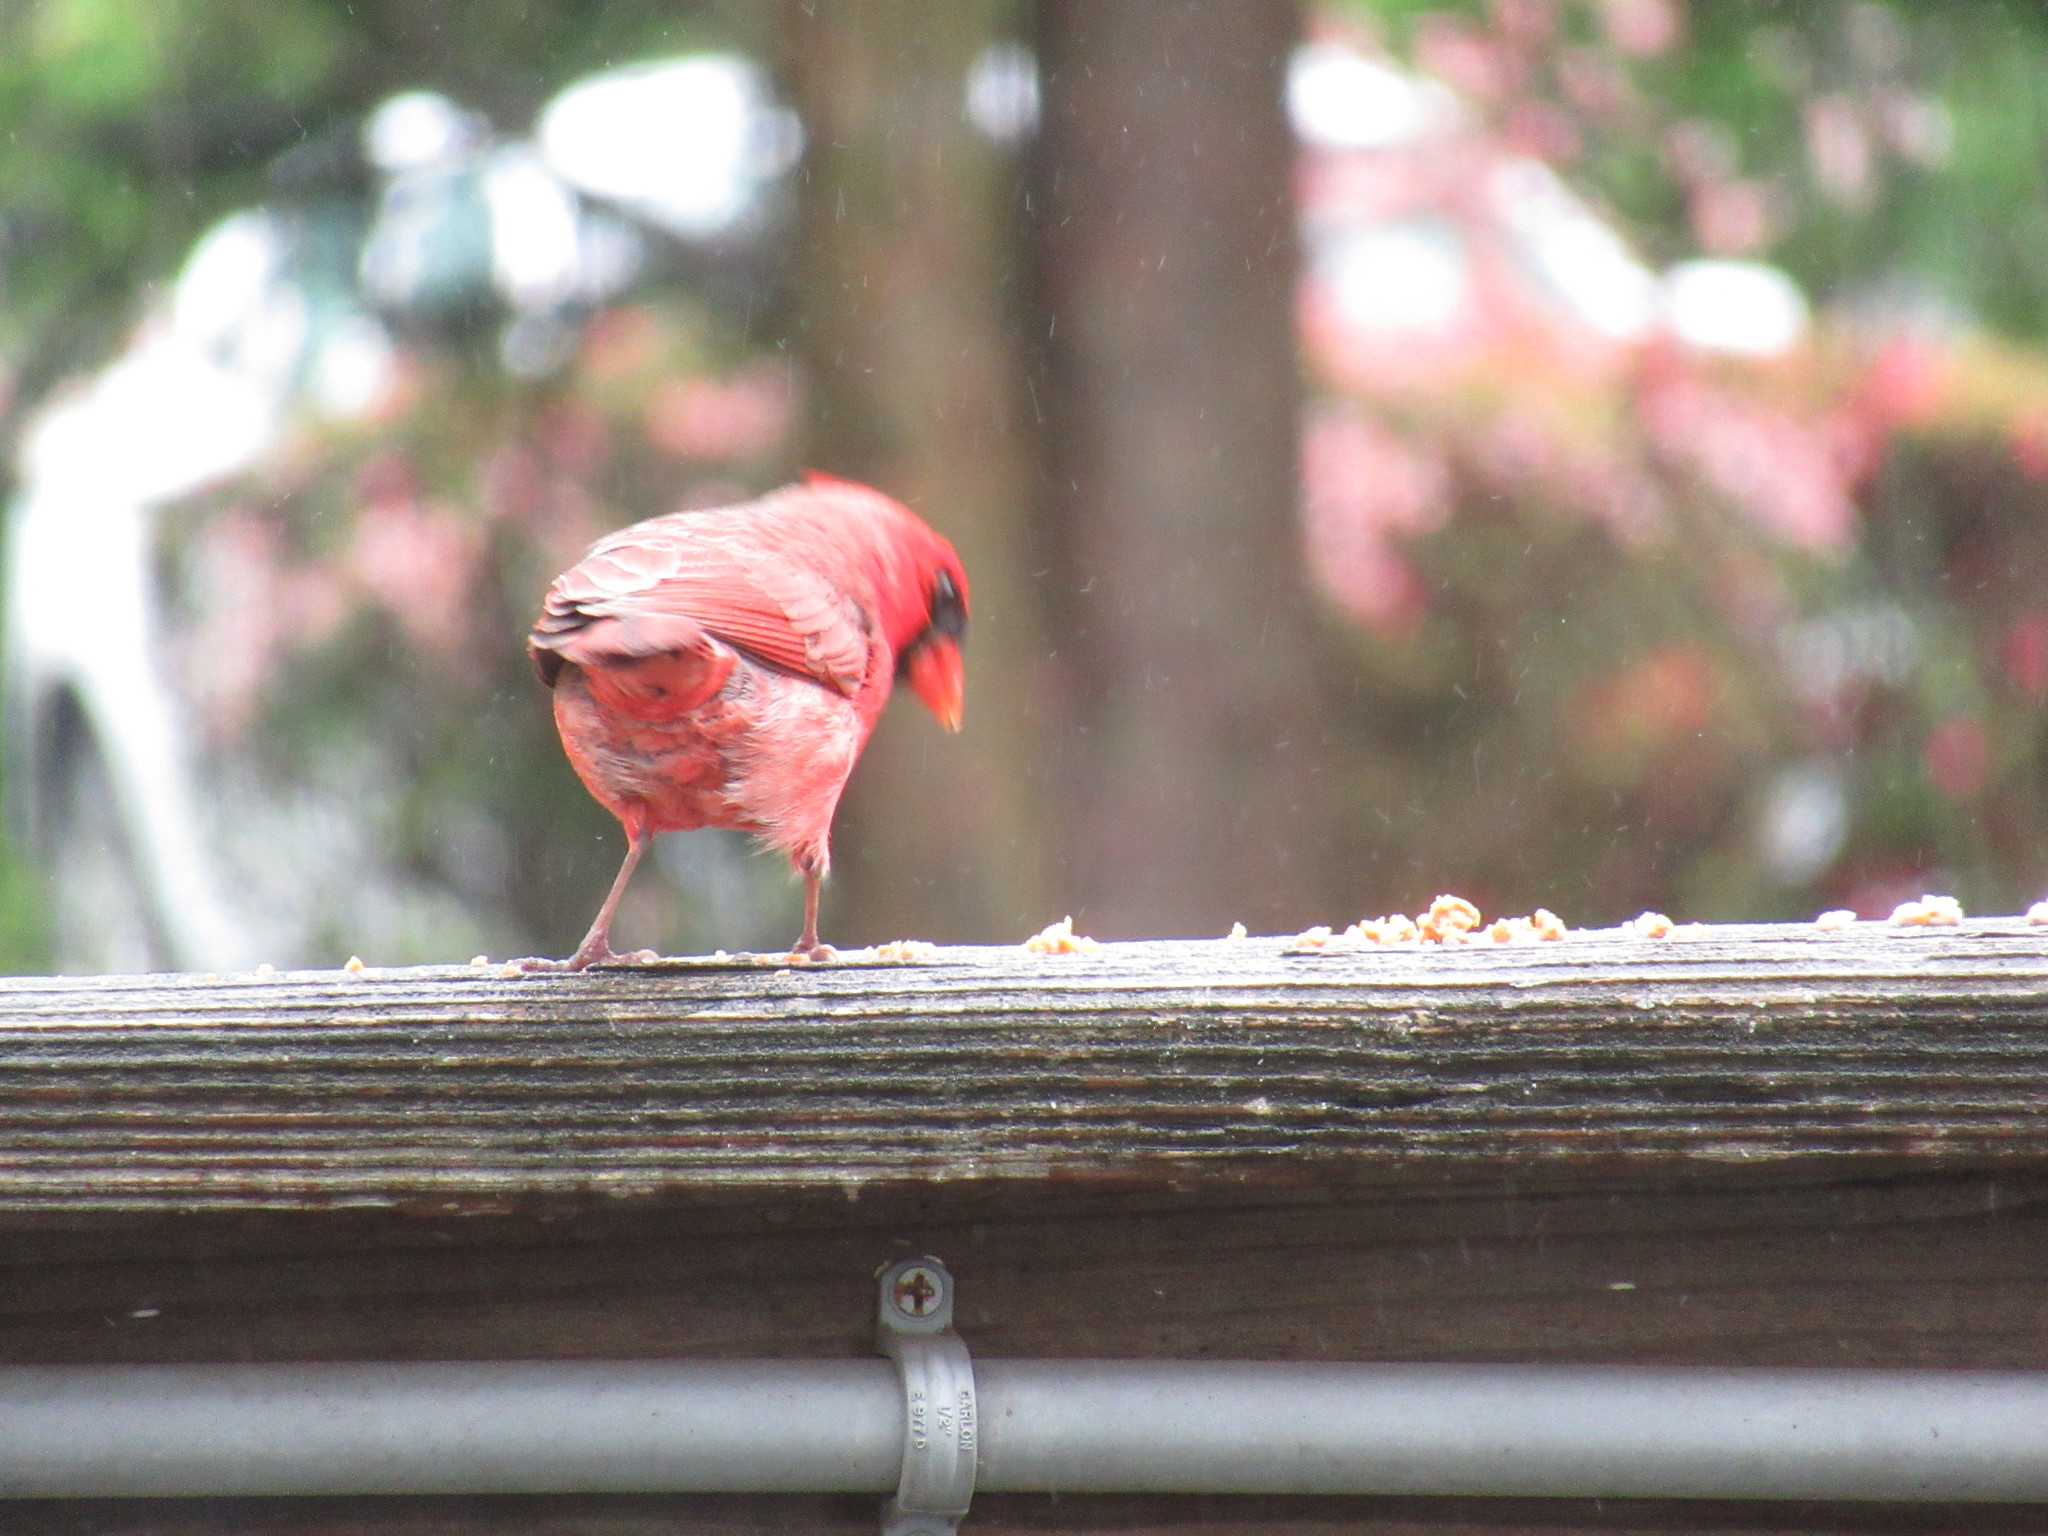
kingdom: Animalia
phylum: Chordata
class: Aves
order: Passeriformes
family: Cardinalidae
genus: Cardinalis
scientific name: Cardinalis cardinalis
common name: Northern cardinal
